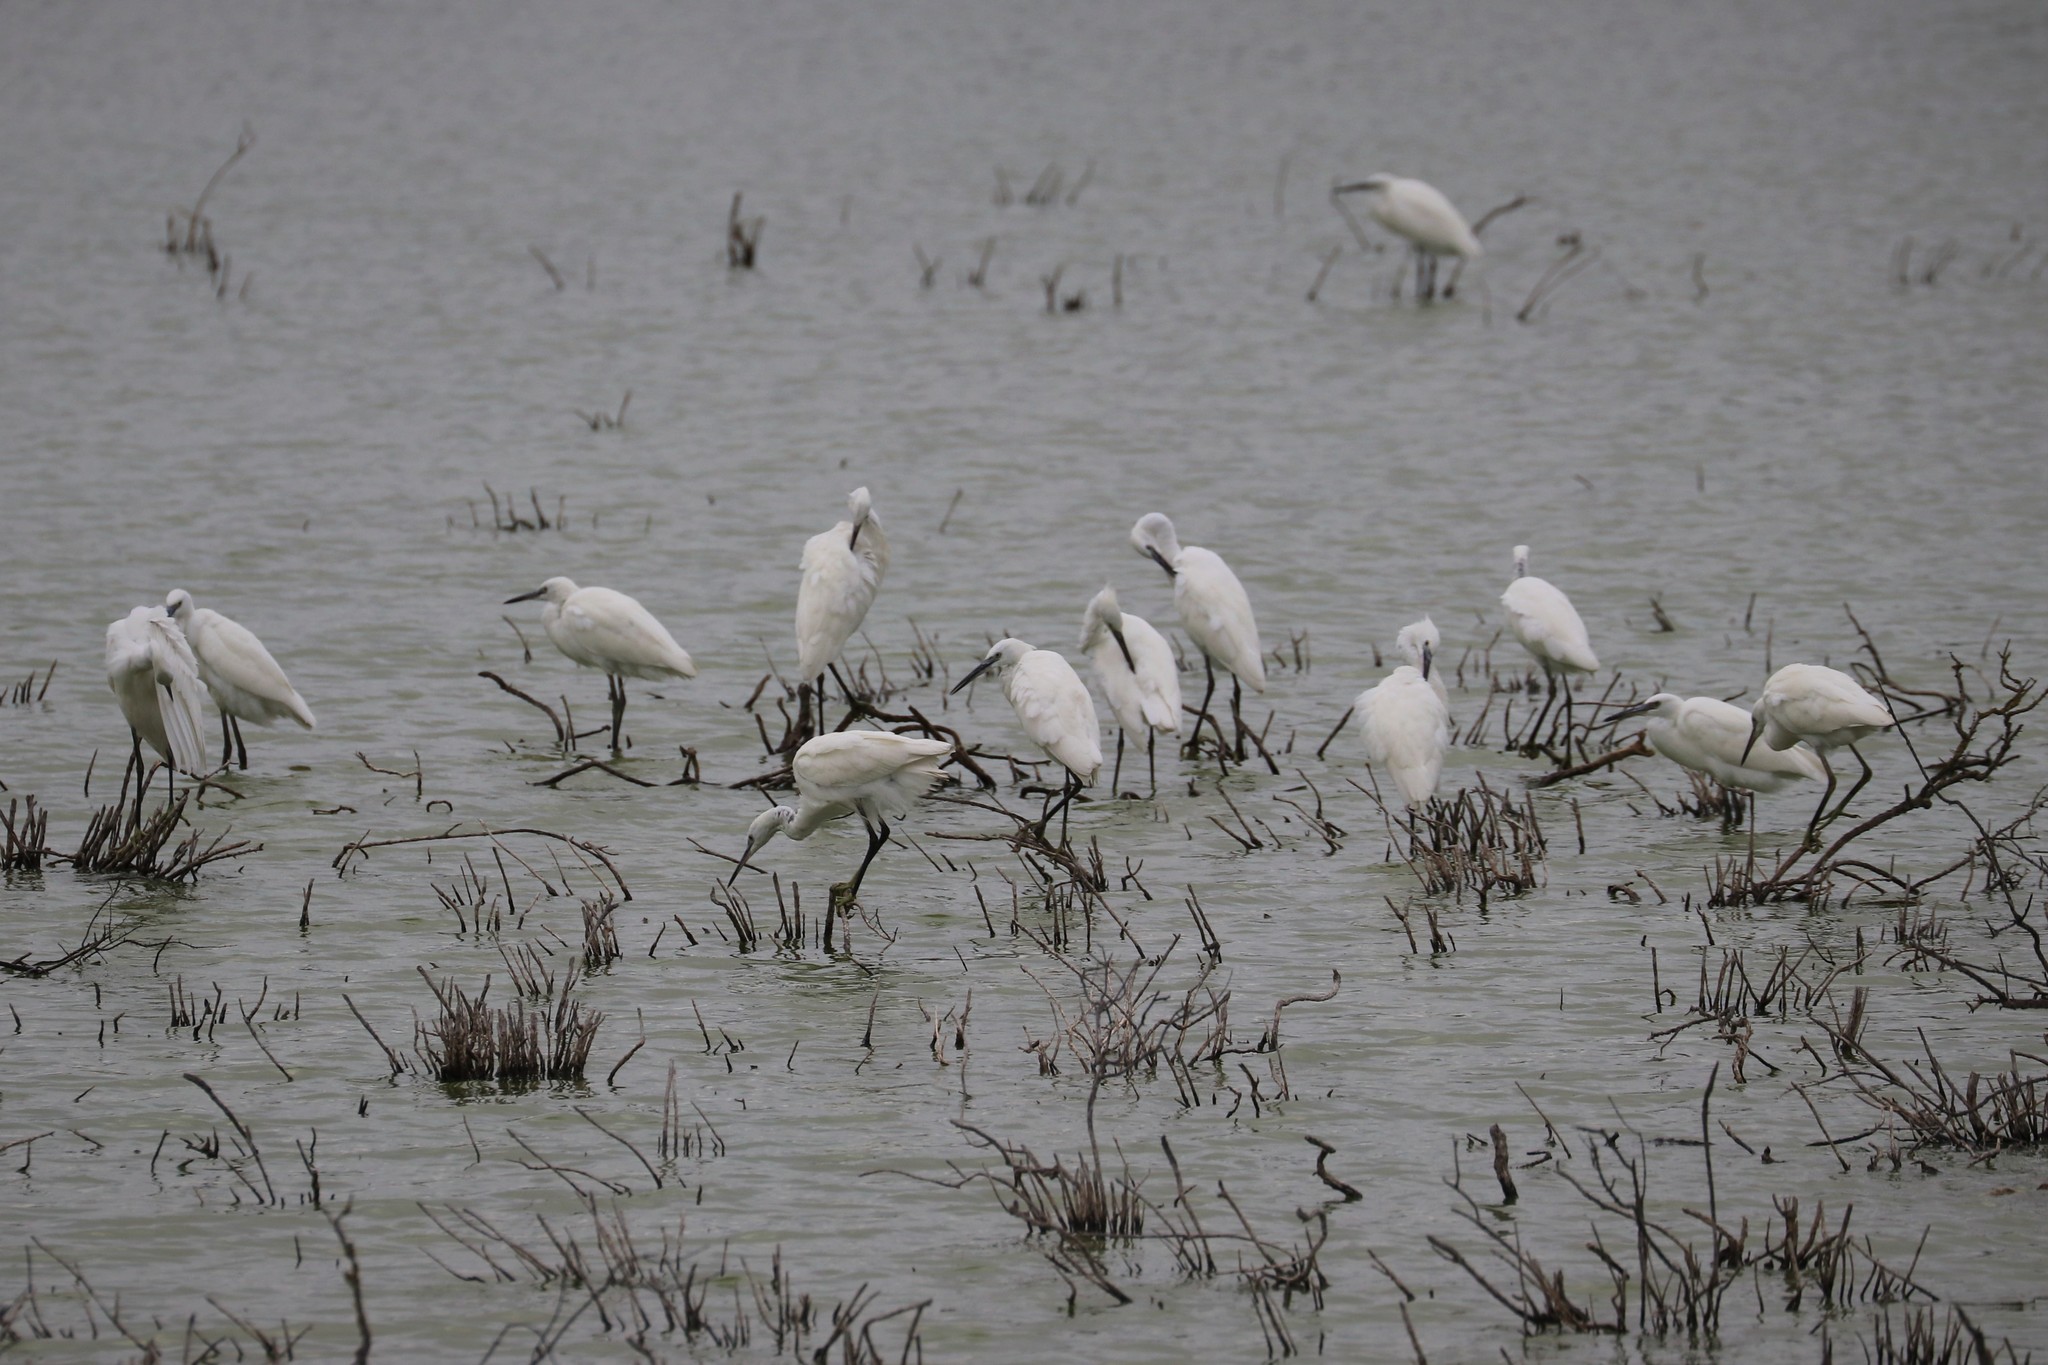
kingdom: Animalia
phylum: Chordata
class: Aves
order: Pelecaniformes
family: Ardeidae
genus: Egretta
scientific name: Egretta garzetta
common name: Little egret
